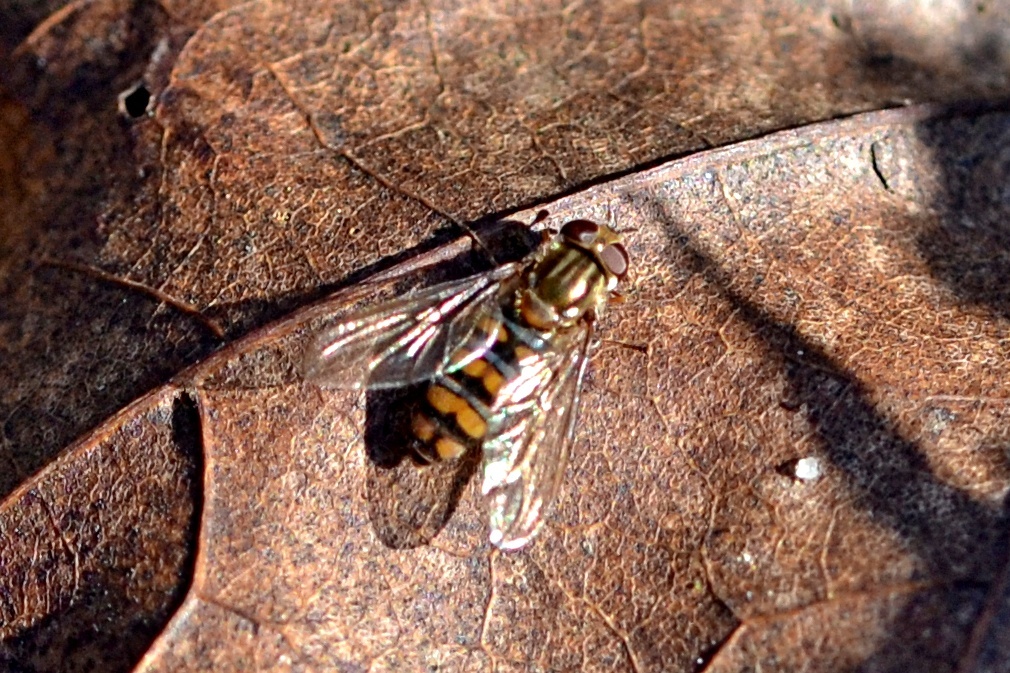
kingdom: Animalia
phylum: Arthropoda
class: Insecta
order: Diptera
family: Syrphidae
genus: Episyrphus
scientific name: Episyrphus balteatus
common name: Marmalade hoverfly
